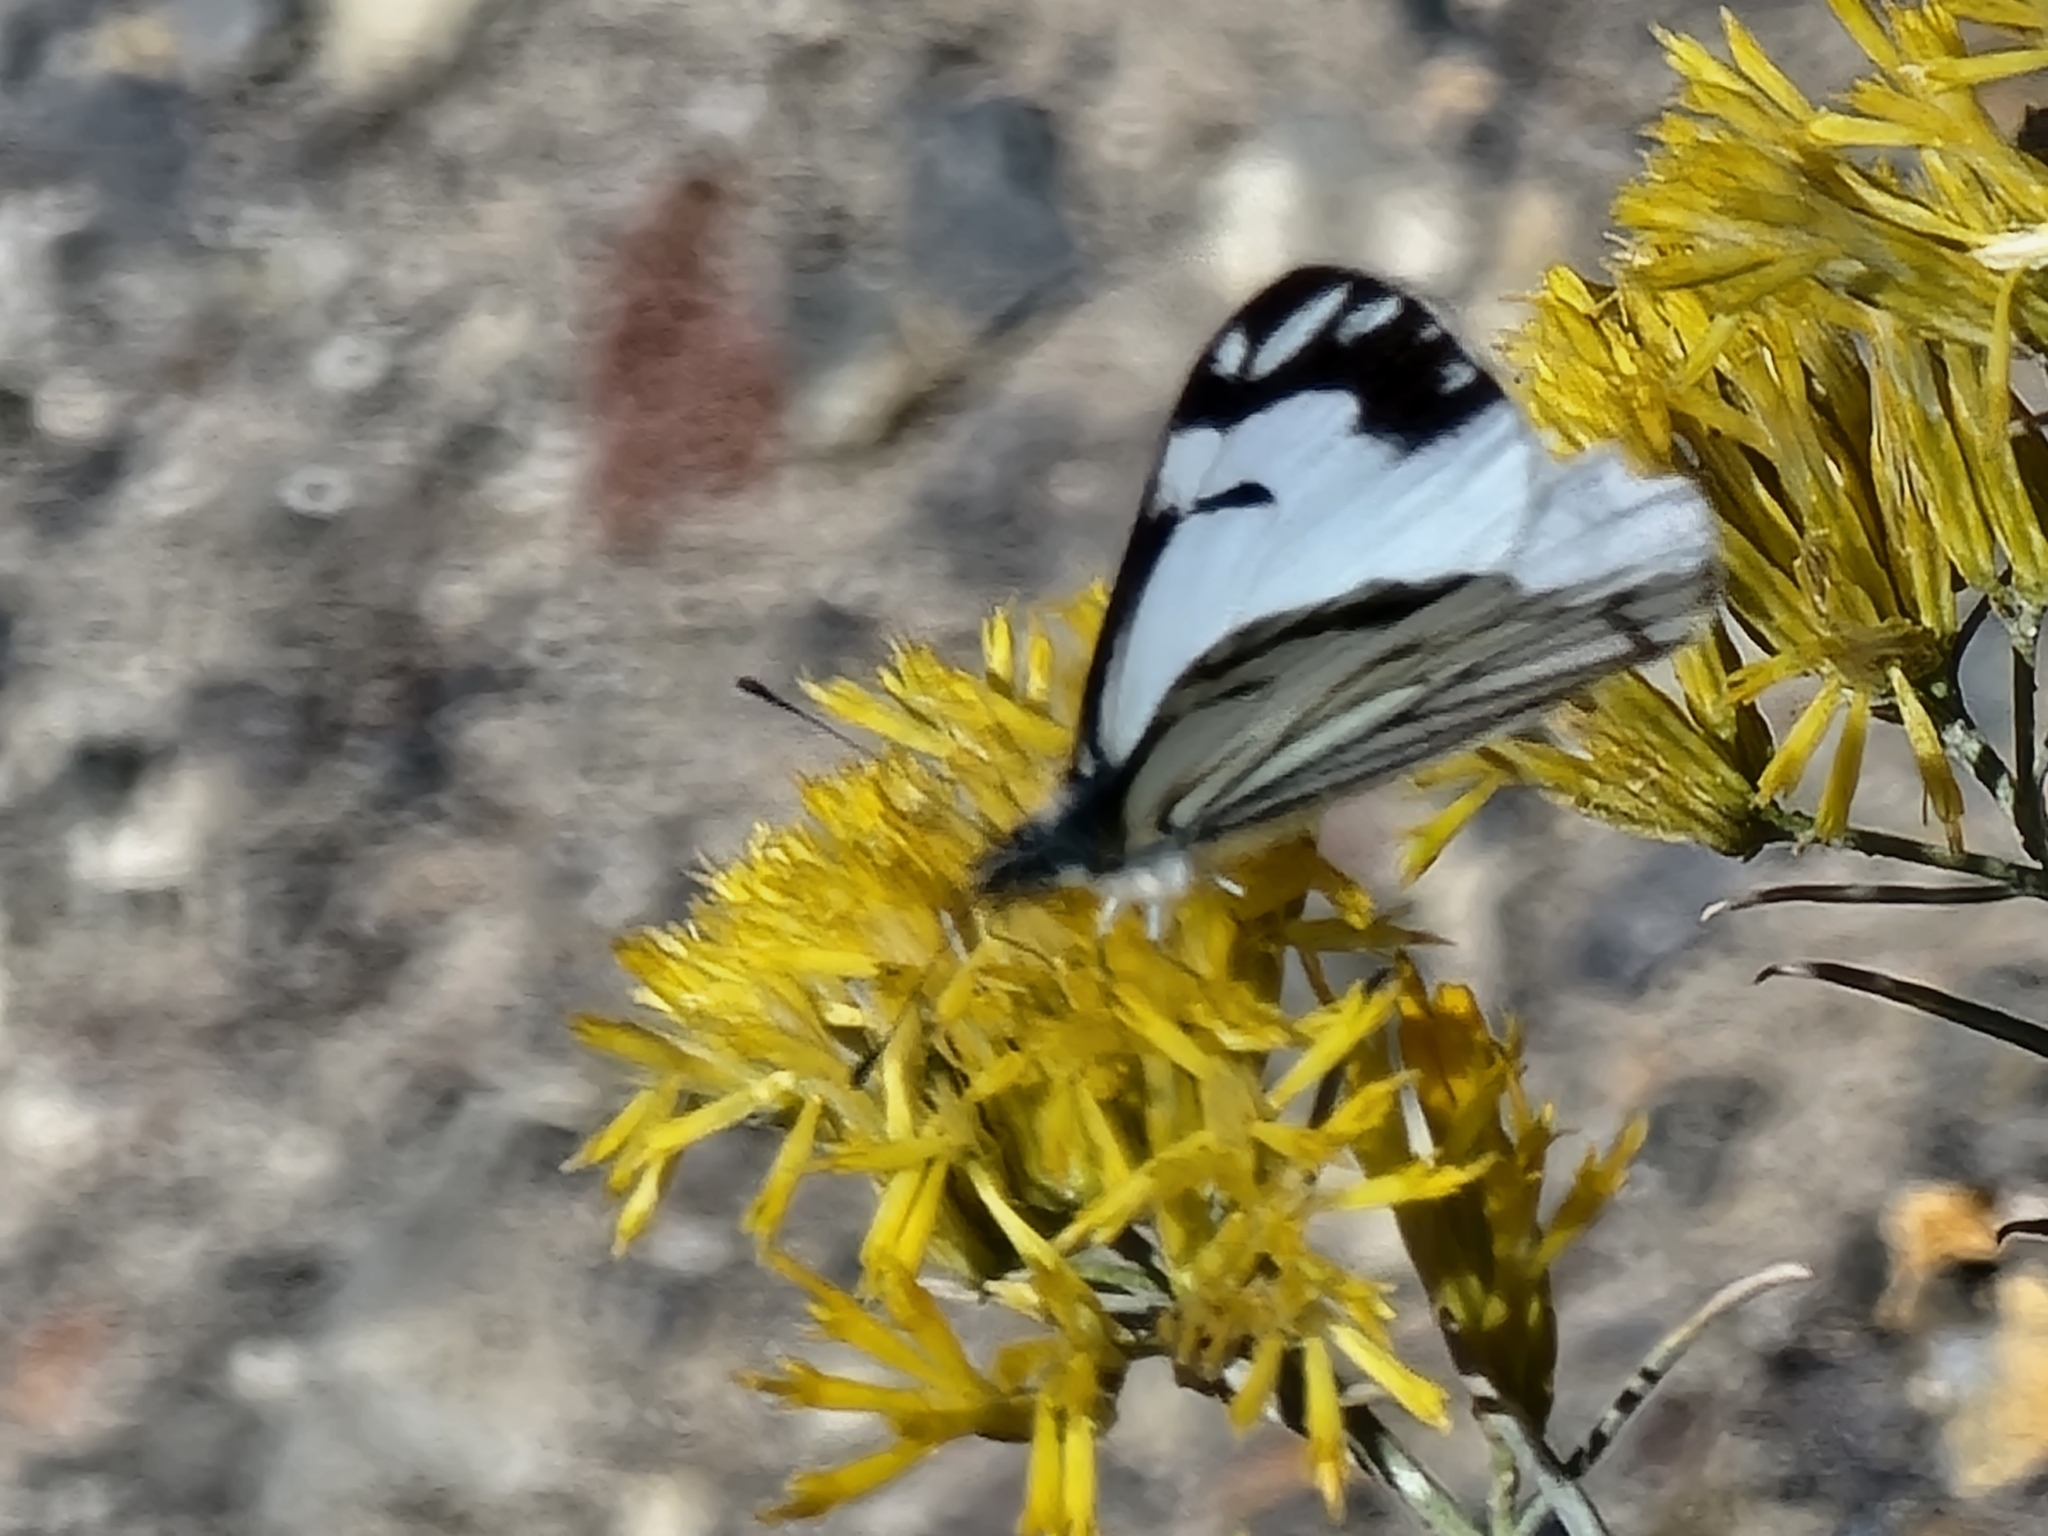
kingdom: Animalia
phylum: Arthropoda
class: Insecta
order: Lepidoptera
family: Pieridae
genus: Neophasia
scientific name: Neophasia menapia
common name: Pine white
